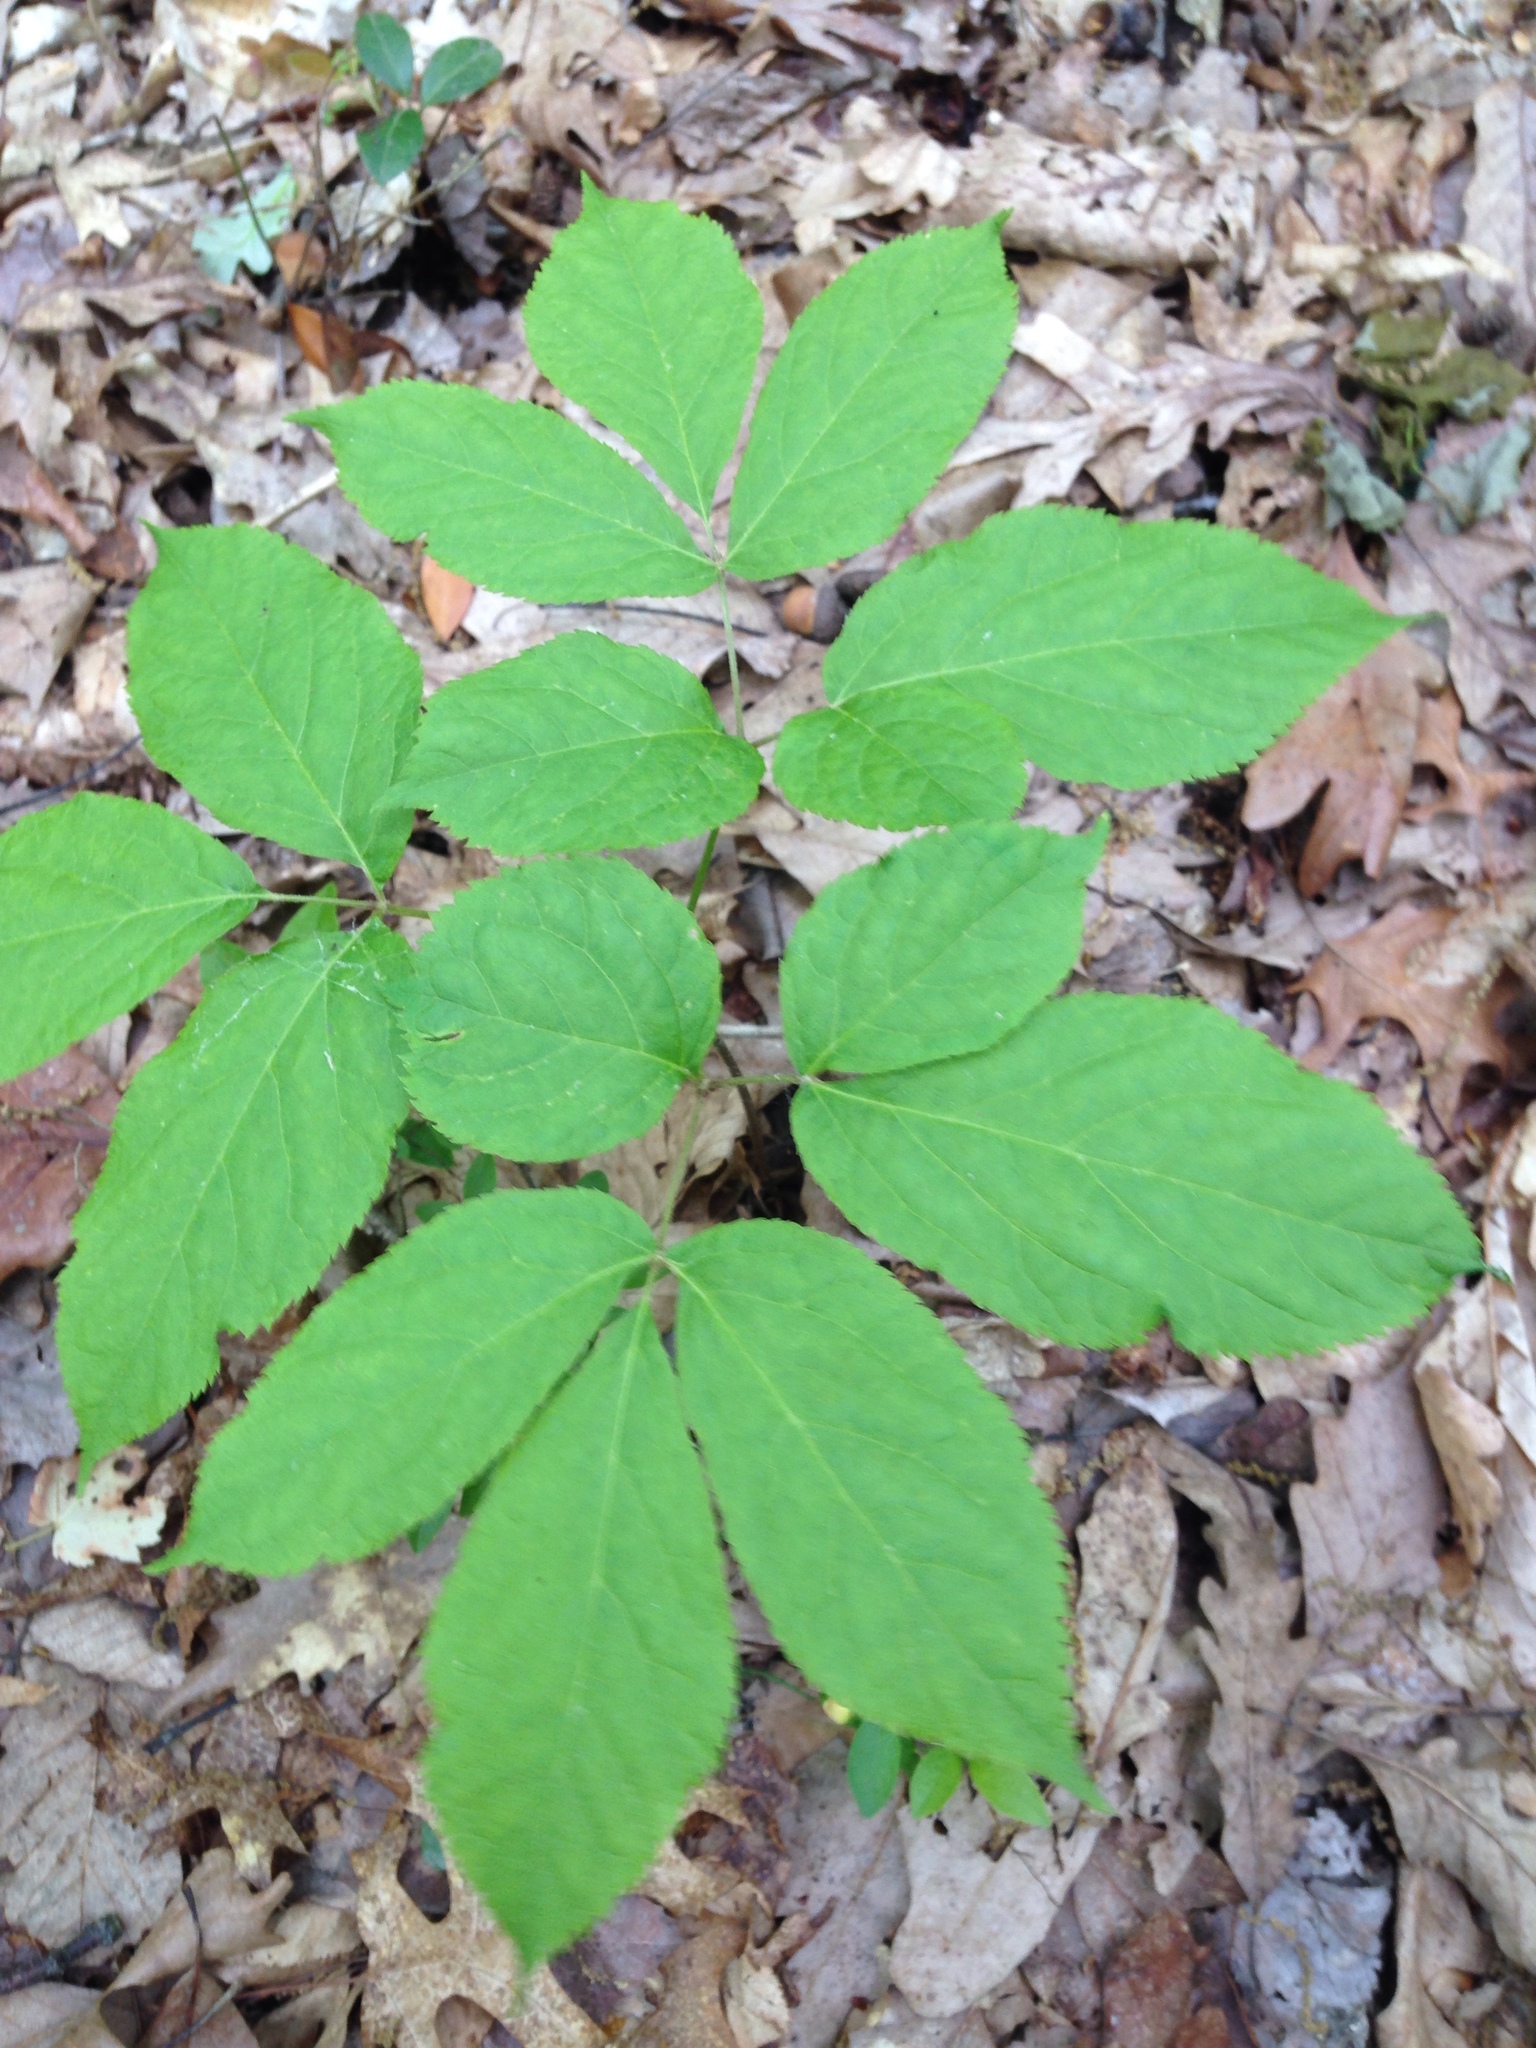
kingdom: Plantae
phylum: Tracheophyta
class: Magnoliopsida
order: Apiales
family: Araliaceae
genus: Aralia
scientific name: Aralia nudicaulis
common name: Wild sarsaparilla
